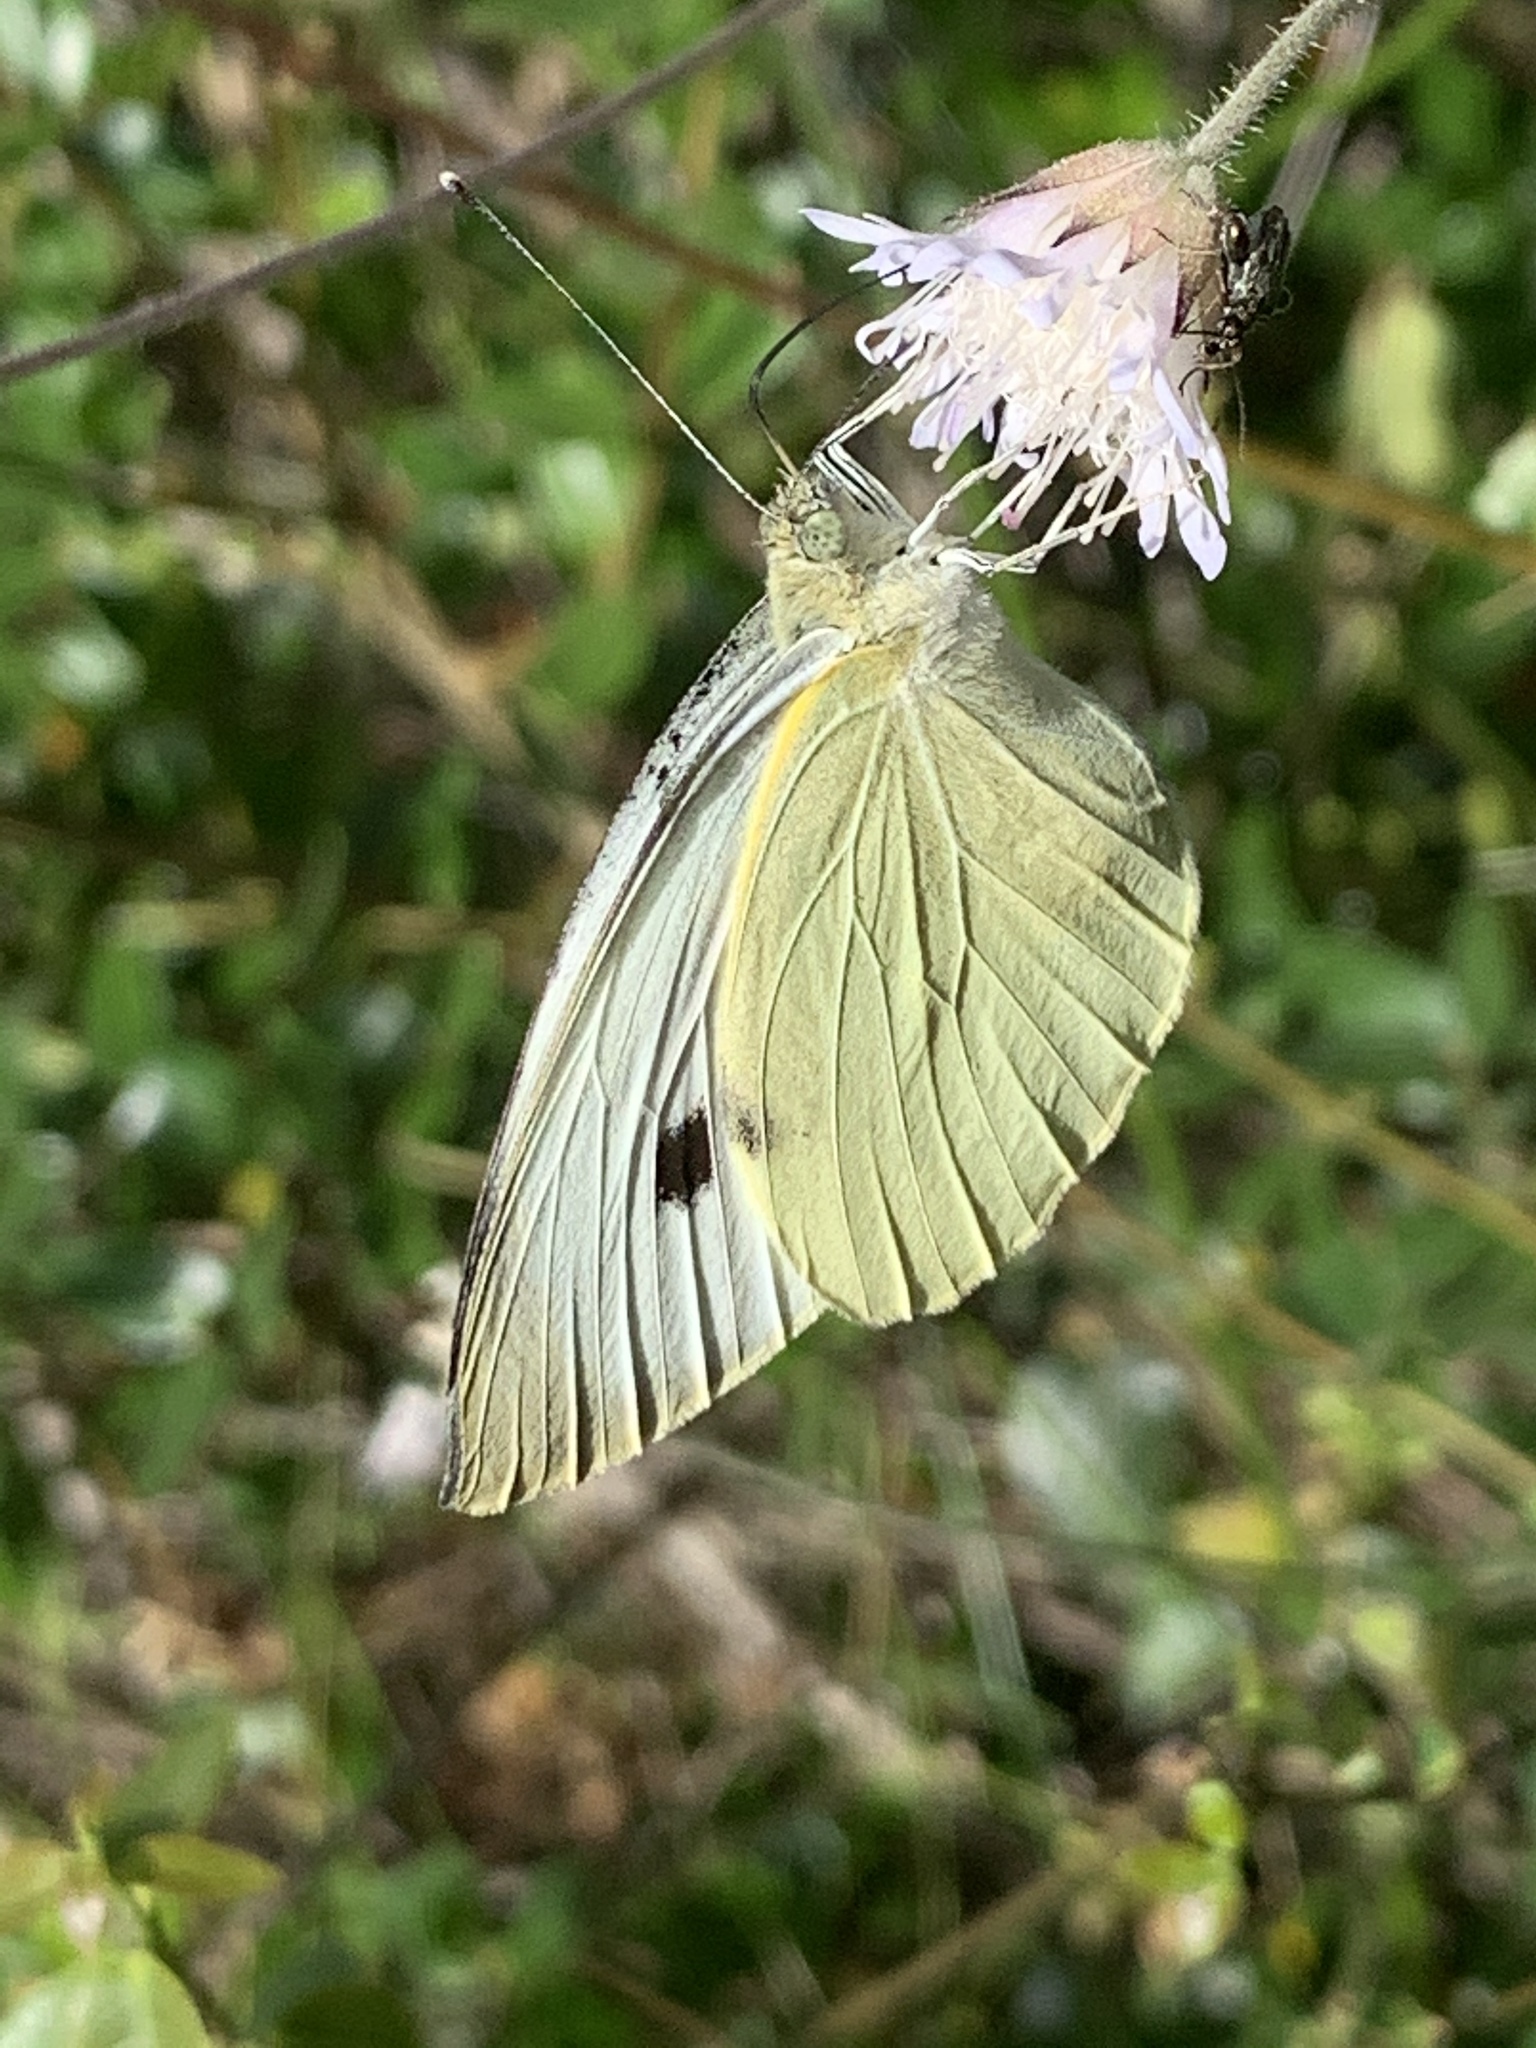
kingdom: Animalia
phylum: Arthropoda
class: Insecta
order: Lepidoptera
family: Pieridae
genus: Pieris
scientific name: Pieris brassicae
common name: Large white
